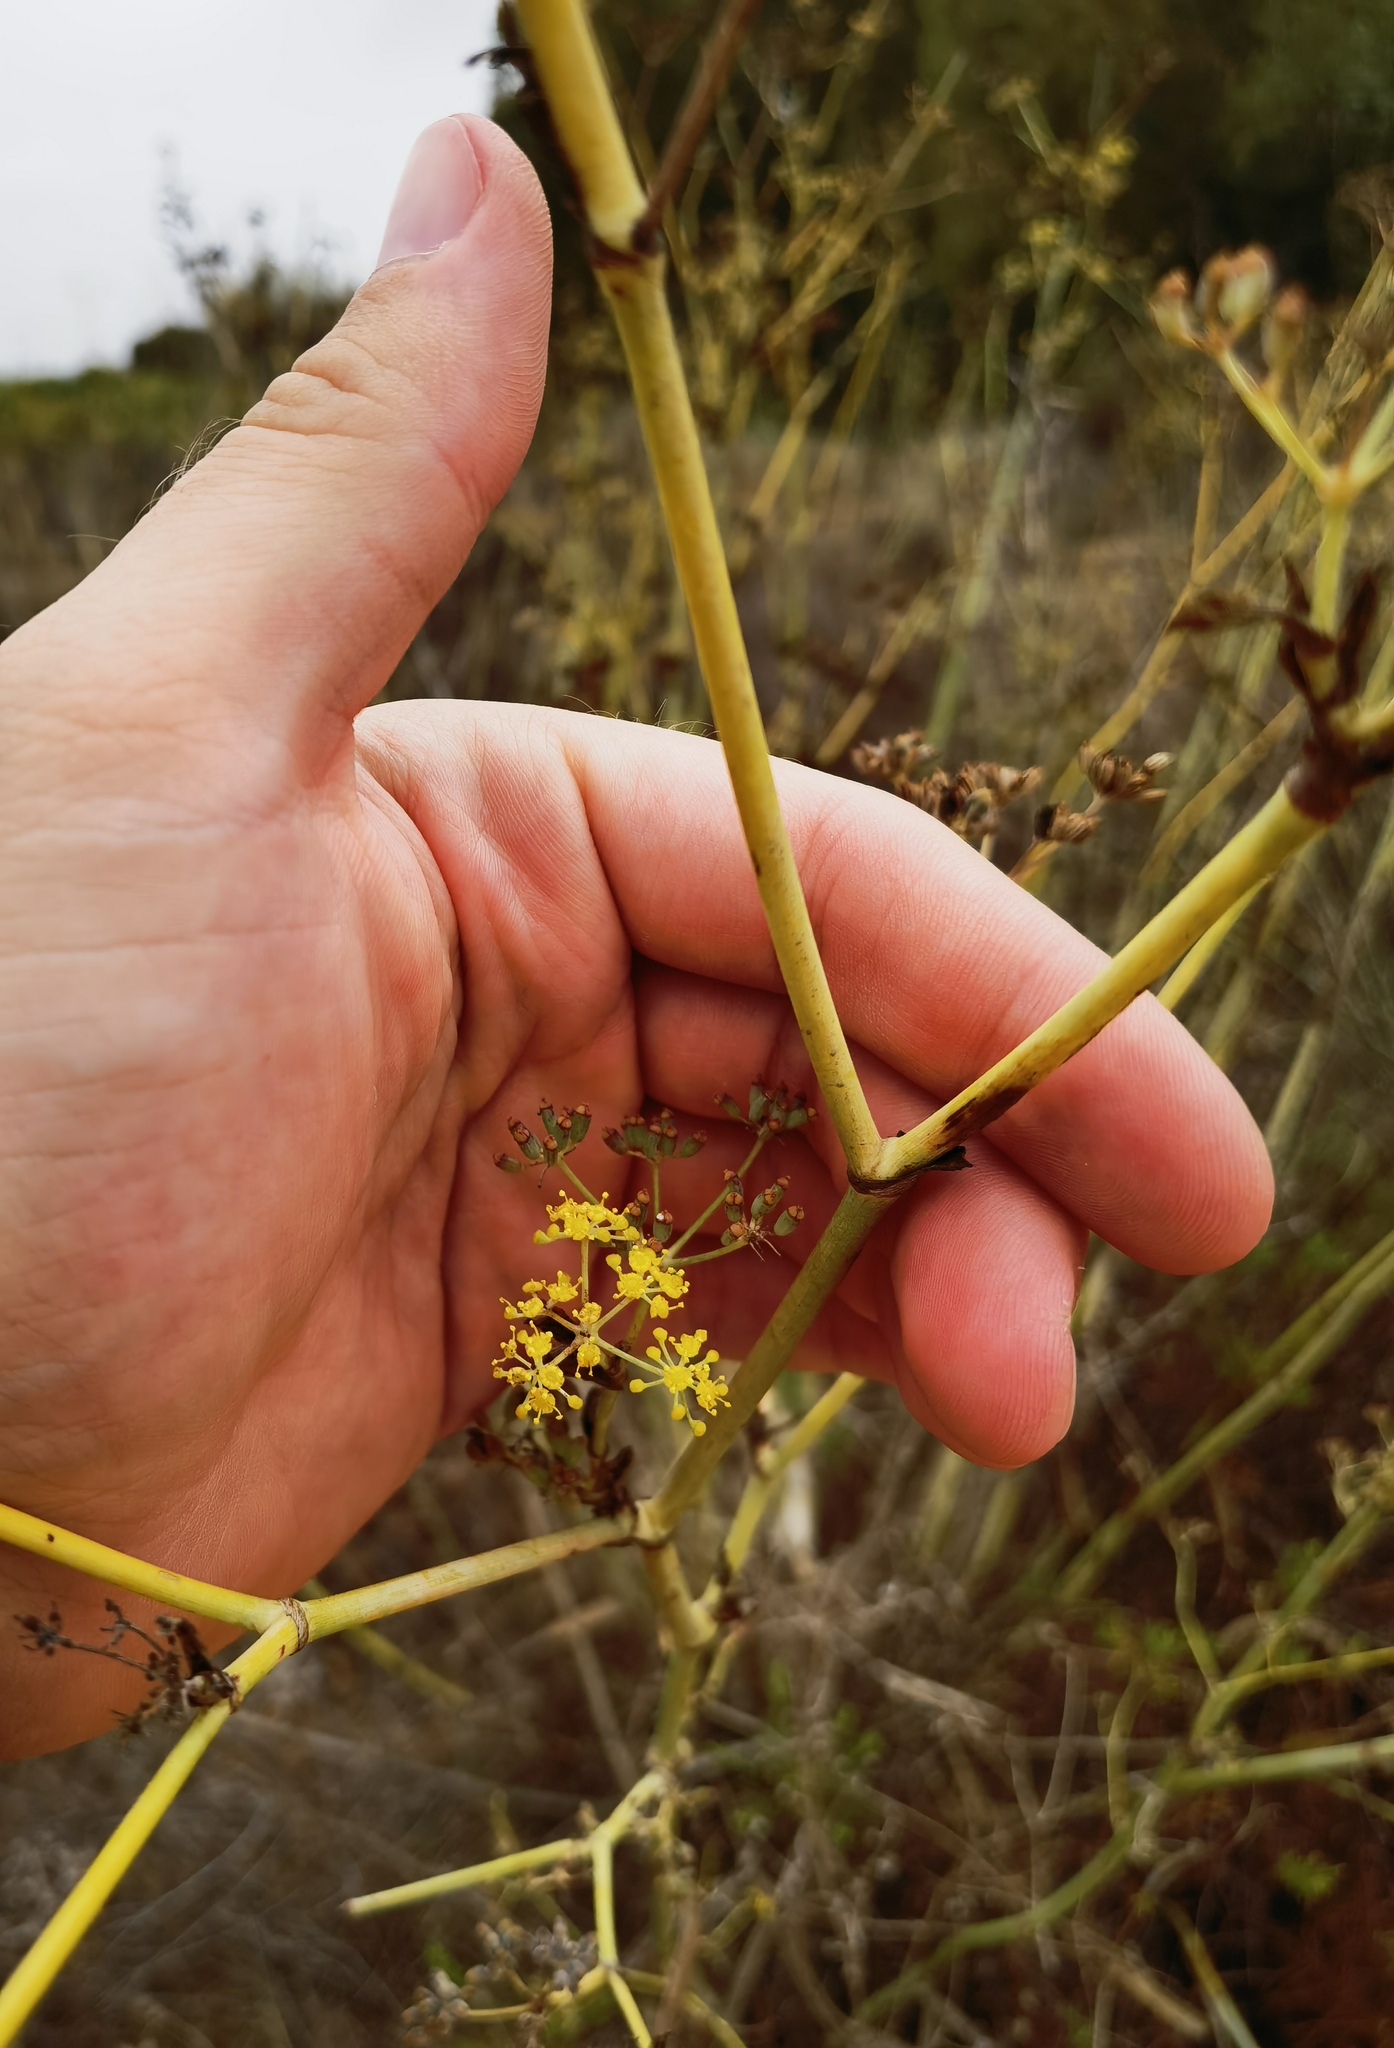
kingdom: Plantae
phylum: Tracheophyta
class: Magnoliopsida
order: Apiales
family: Apiaceae
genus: Foeniculum
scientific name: Foeniculum vulgare
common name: Fennel
